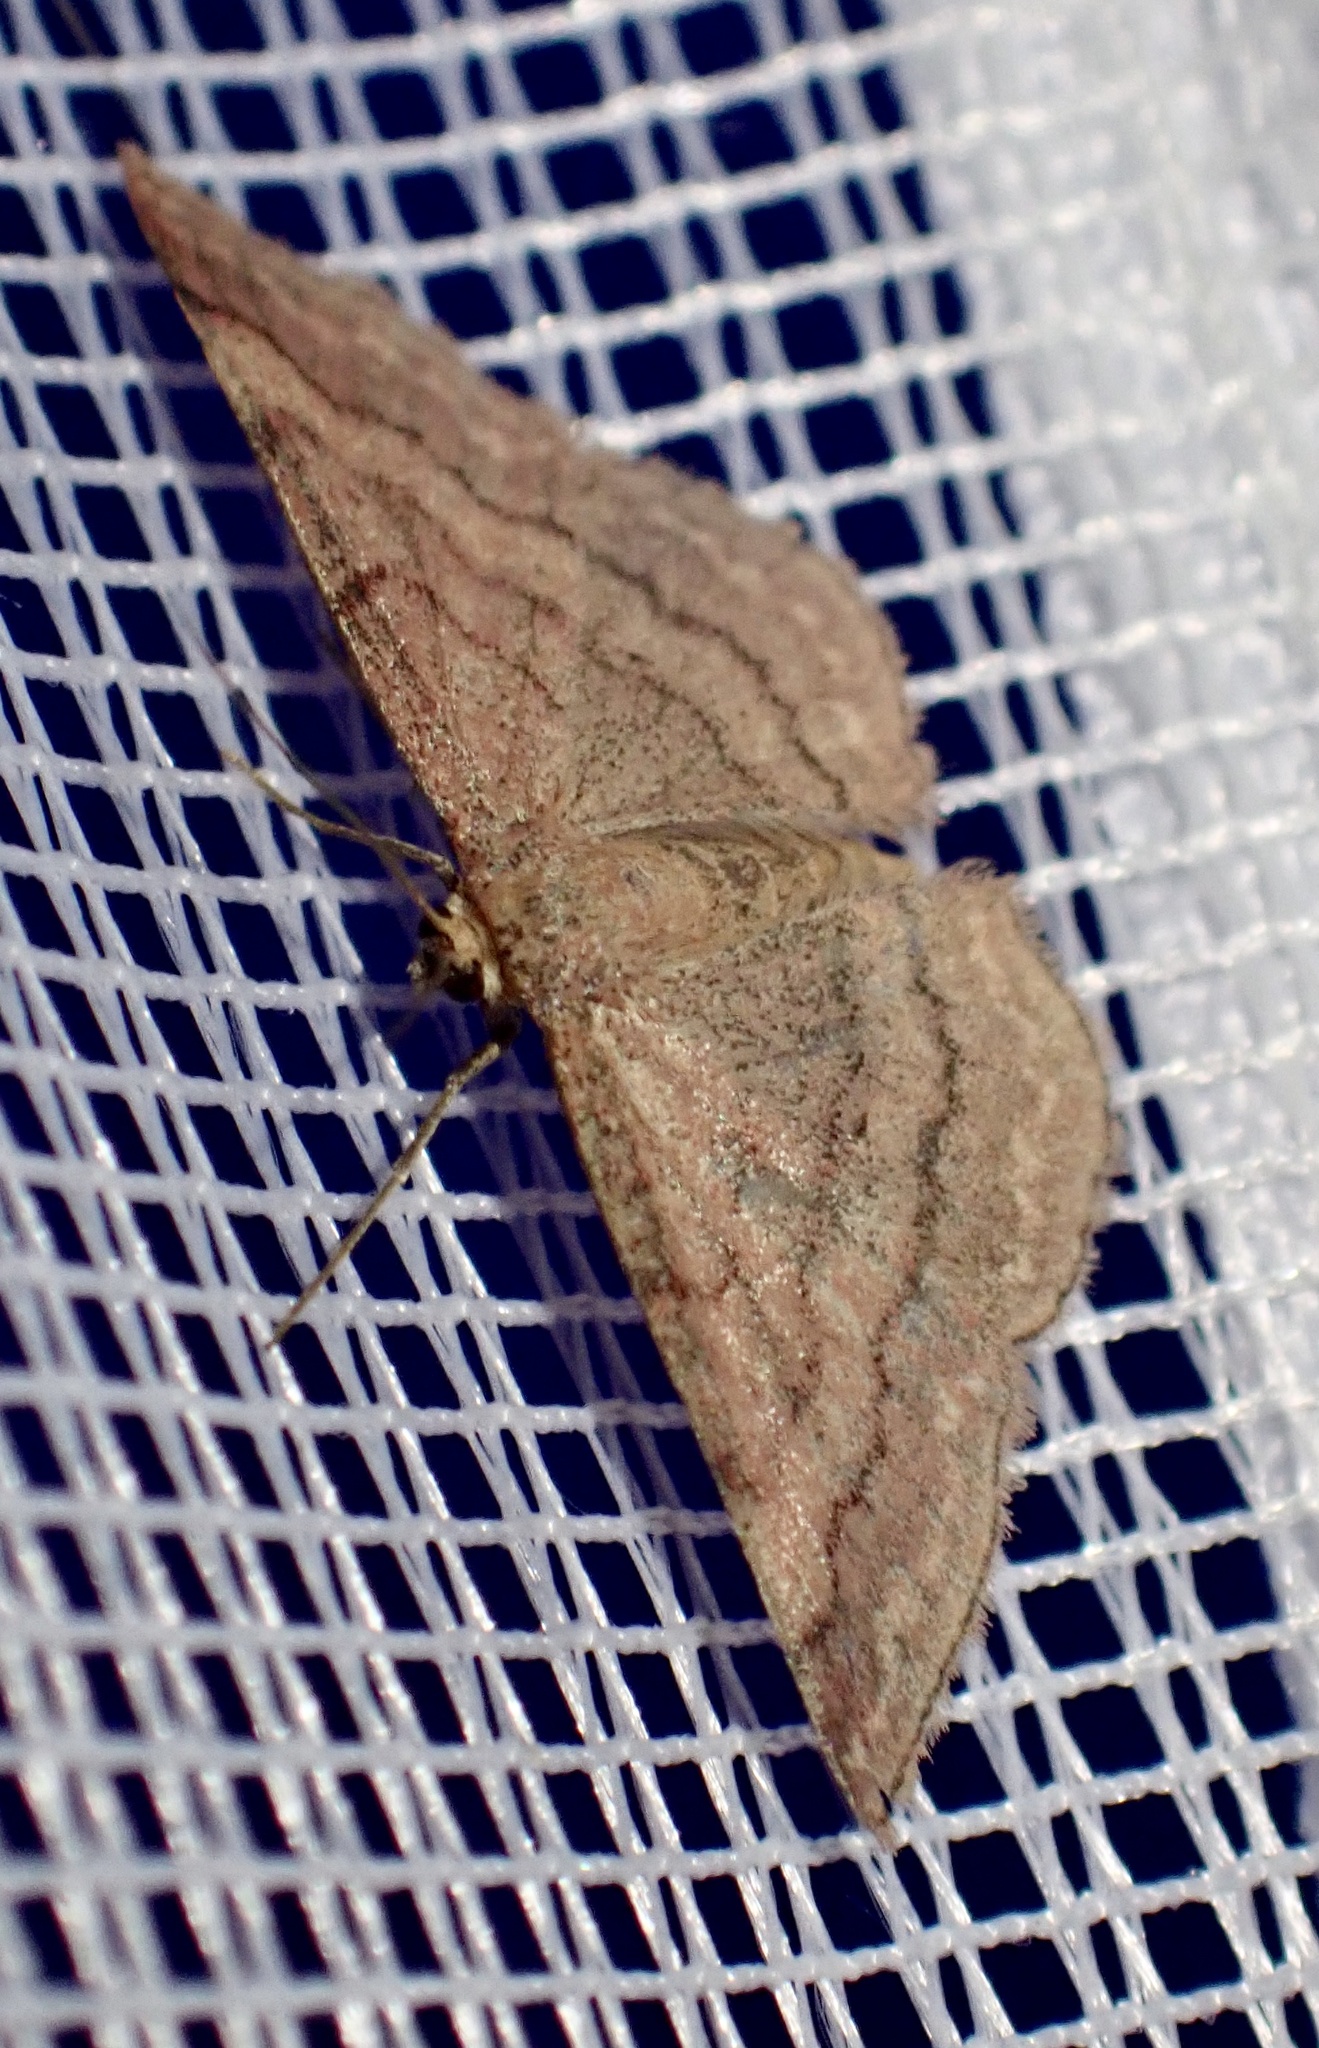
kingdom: Animalia
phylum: Arthropoda
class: Insecta
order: Lepidoptera
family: Geometridae
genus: Scopula
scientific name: Scopula rubiginata
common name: Tawny wave
